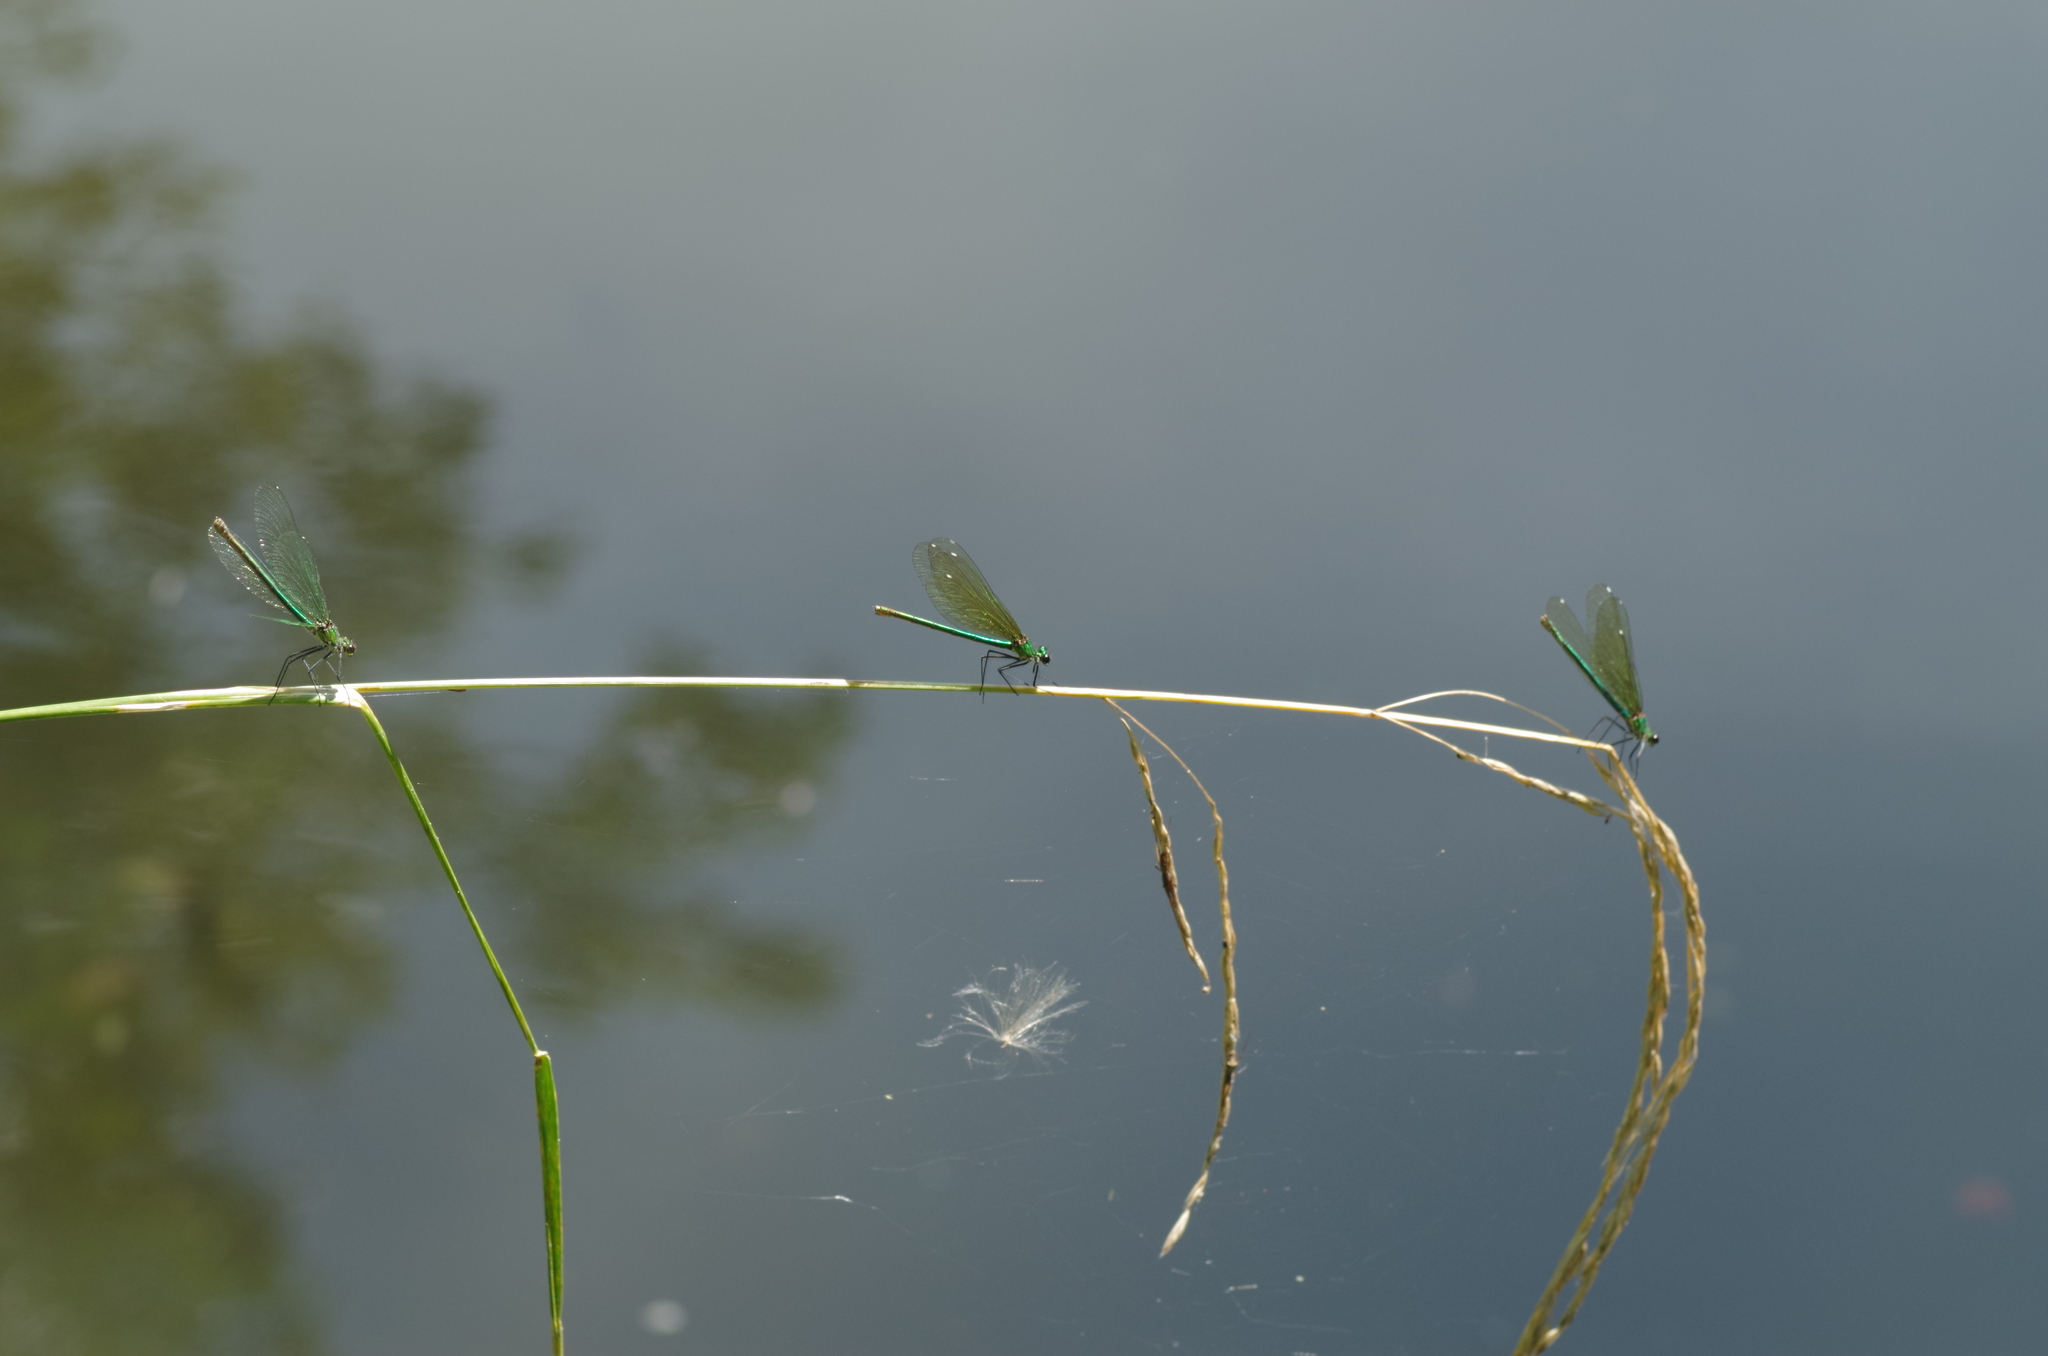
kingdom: Animalia
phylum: Arthropoda
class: Insecta
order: Odonata
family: Calopterygidae
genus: Calopteryx
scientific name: Calopteryx splendens
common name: Banded demoiselle
